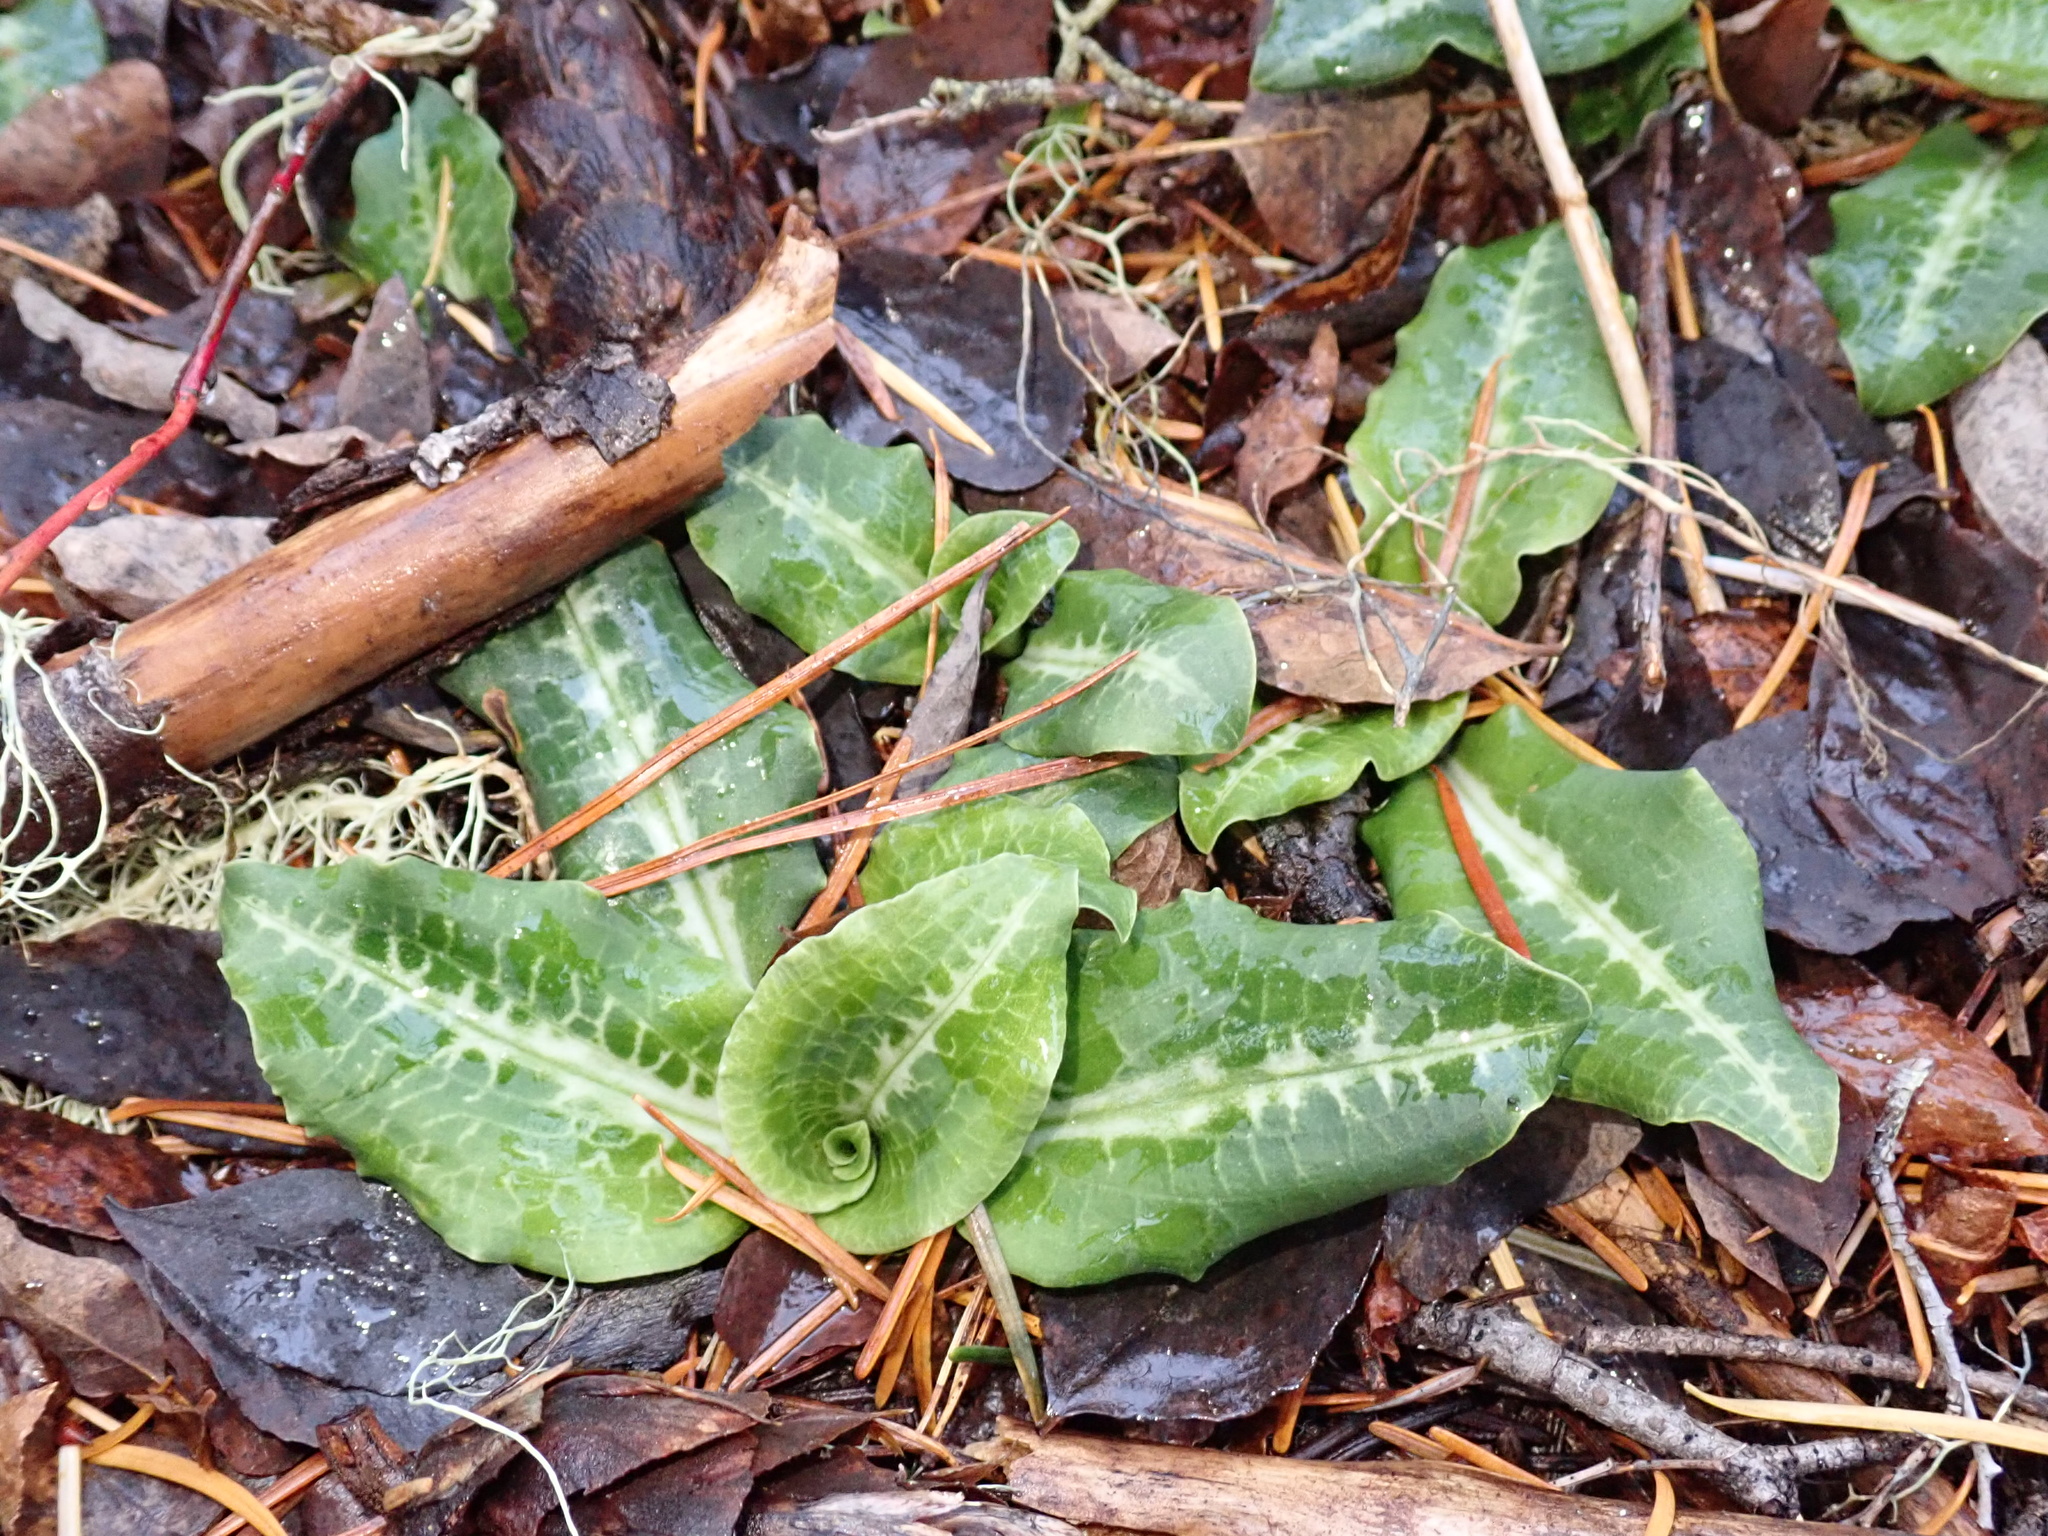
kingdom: Plantae
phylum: Tracheophyta
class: Liliopsida
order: Asparagales
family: Orchidaceae
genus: Goodyera
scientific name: Goodyera oblongifolia
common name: Giant rattlesnake-plantain
